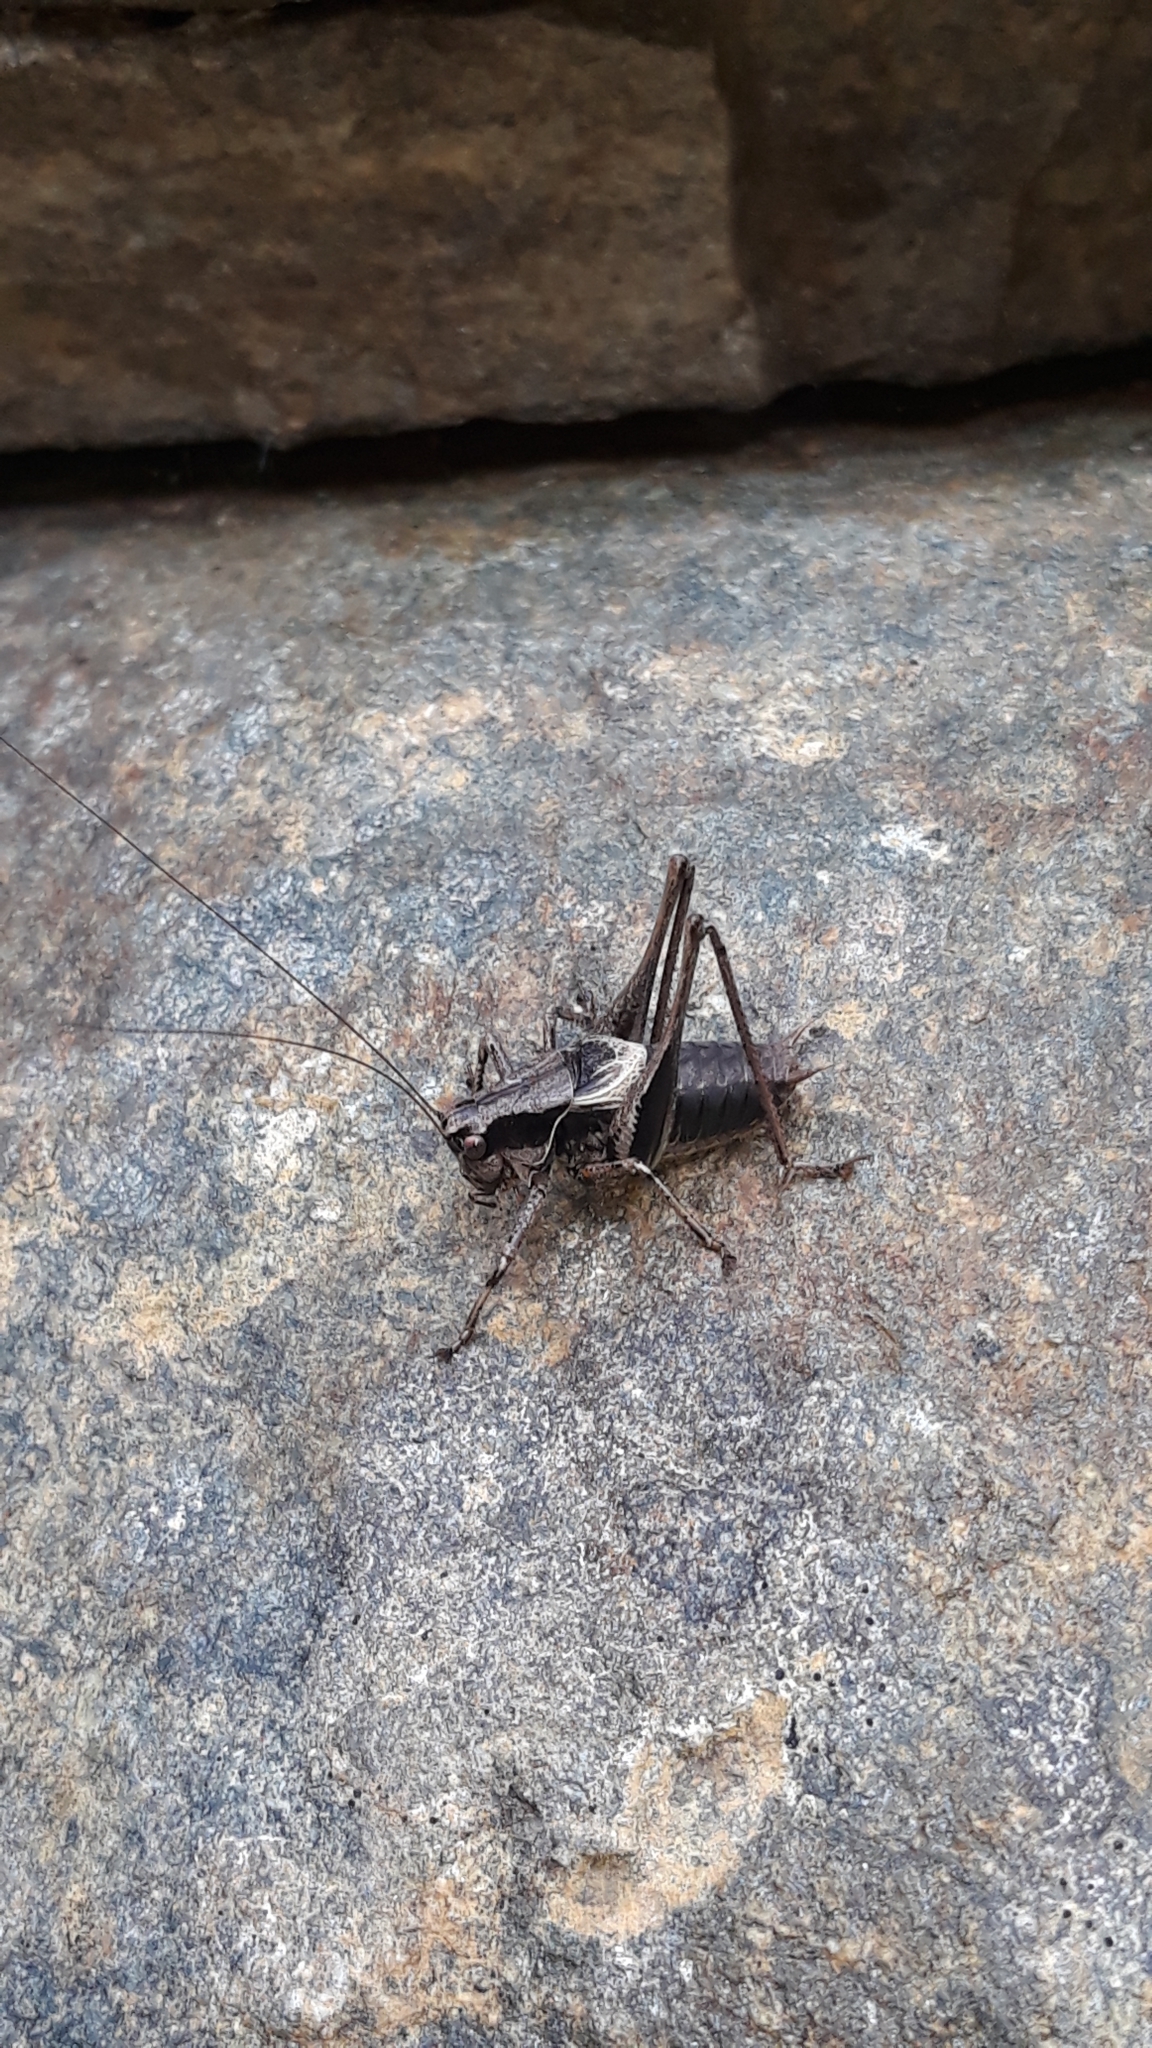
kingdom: Animalia
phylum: Arthropoda
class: Insecta
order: Orthoptera
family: Tettigoniidae
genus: Pholidoptera
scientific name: Pholidoptera griseoaptera
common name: Dark bush-cricket
